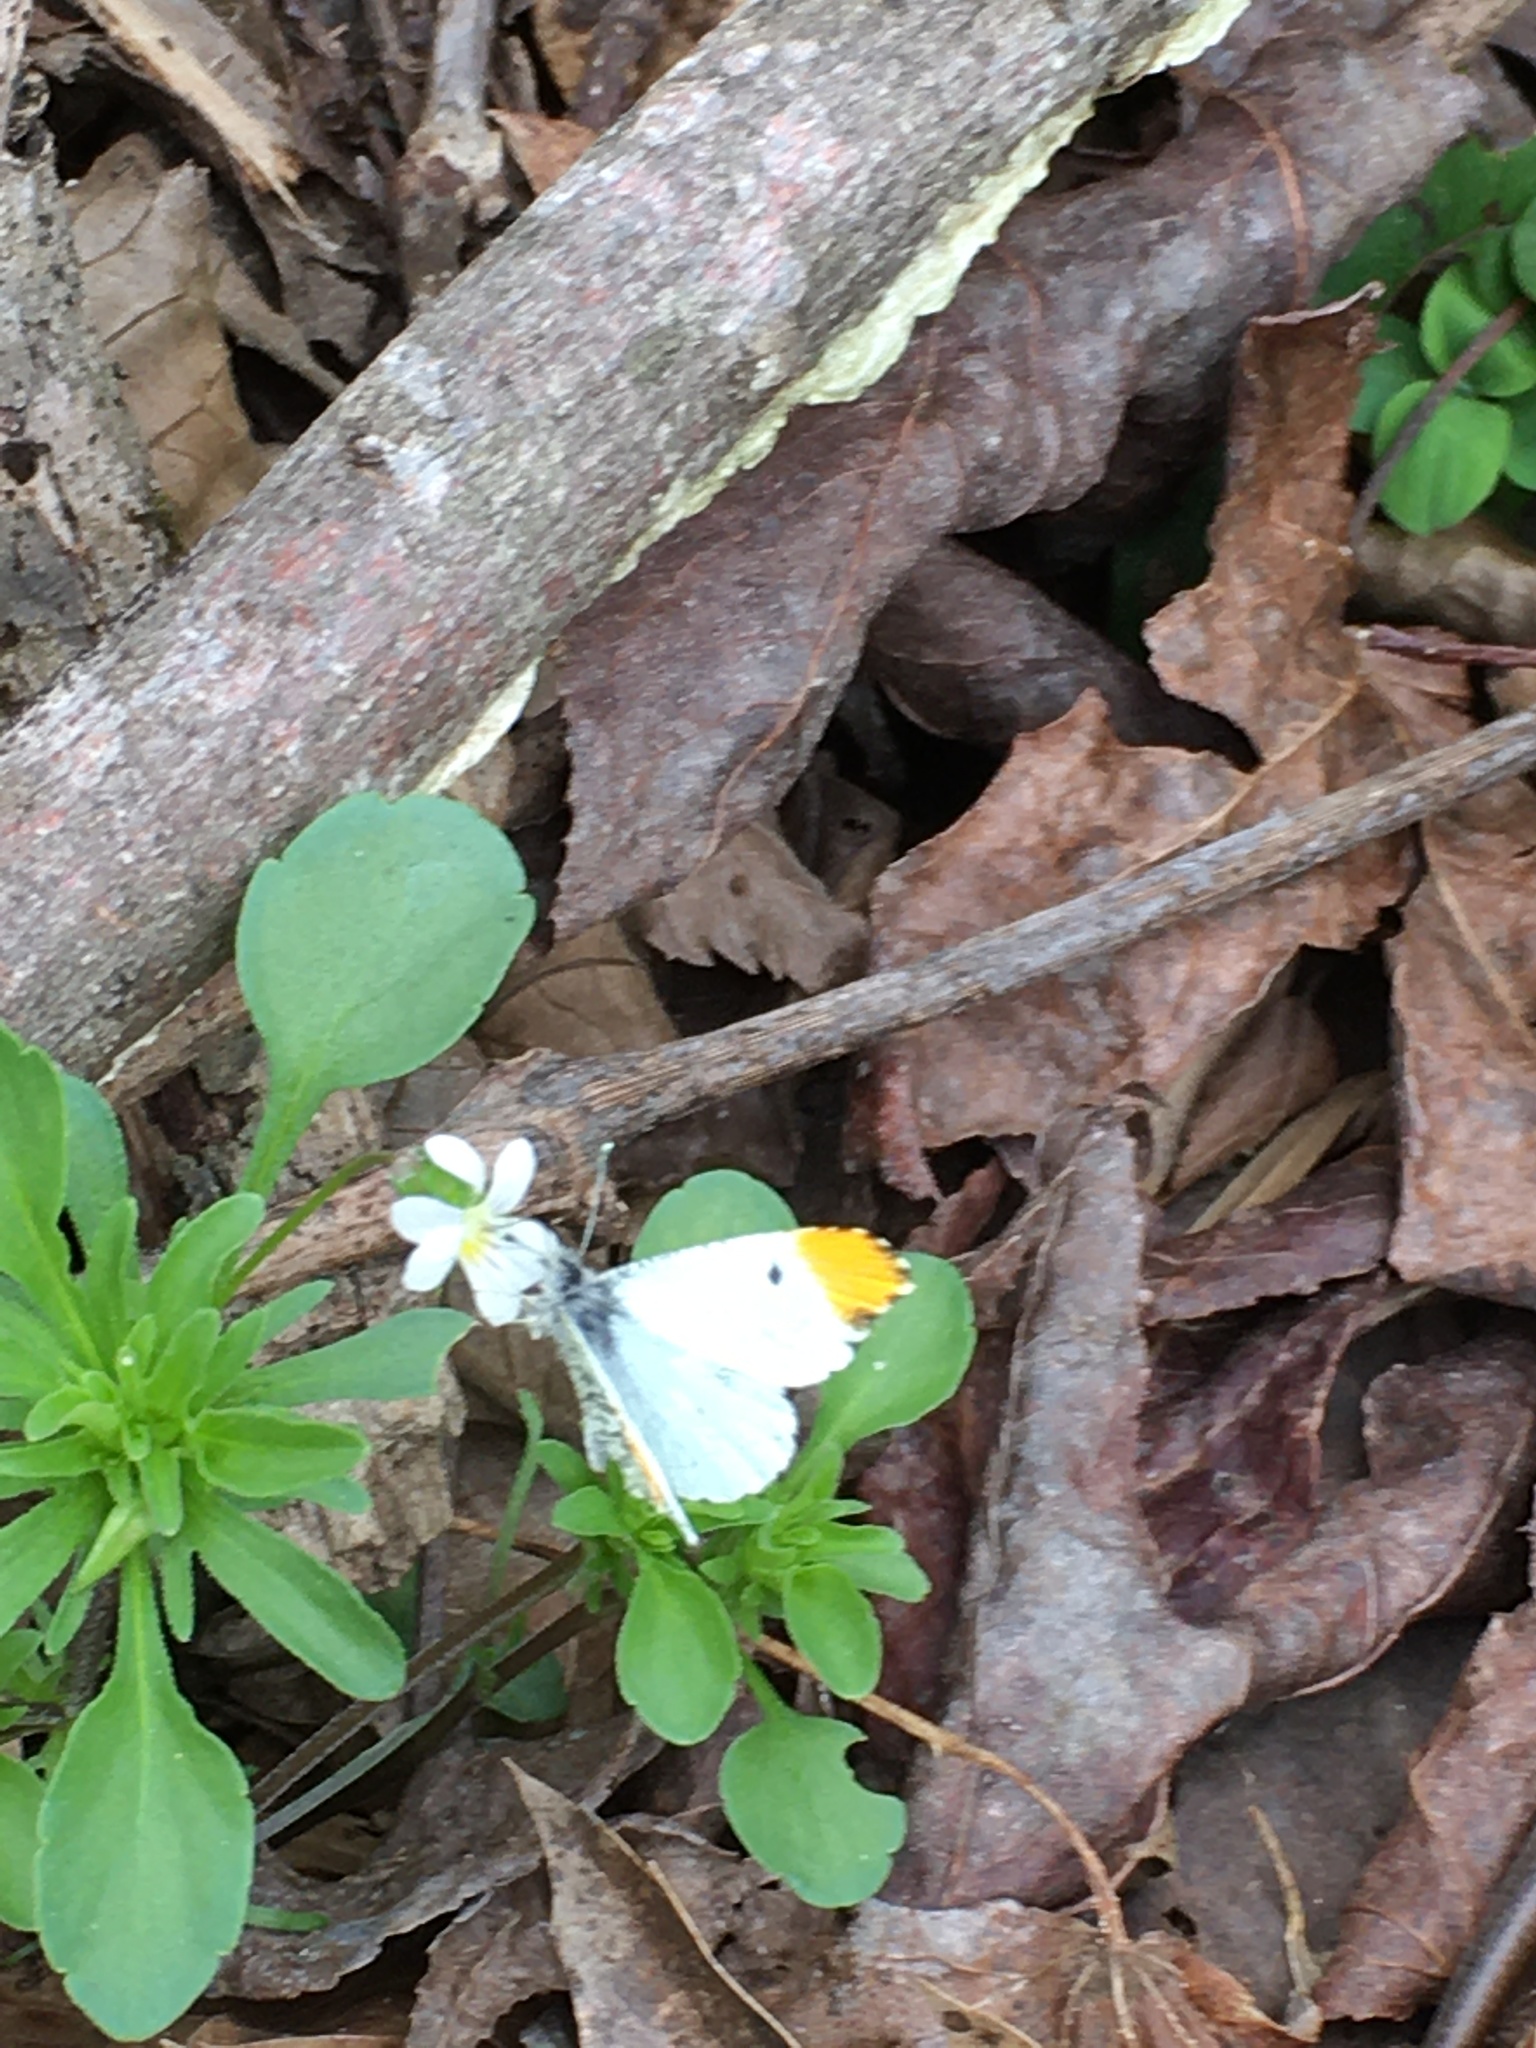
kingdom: Plantae
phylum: Tracheophyta
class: Magnoliopsida
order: Malpighiales
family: Violaceae
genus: Viola
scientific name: Viola rafinesquei
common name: American field pansy
